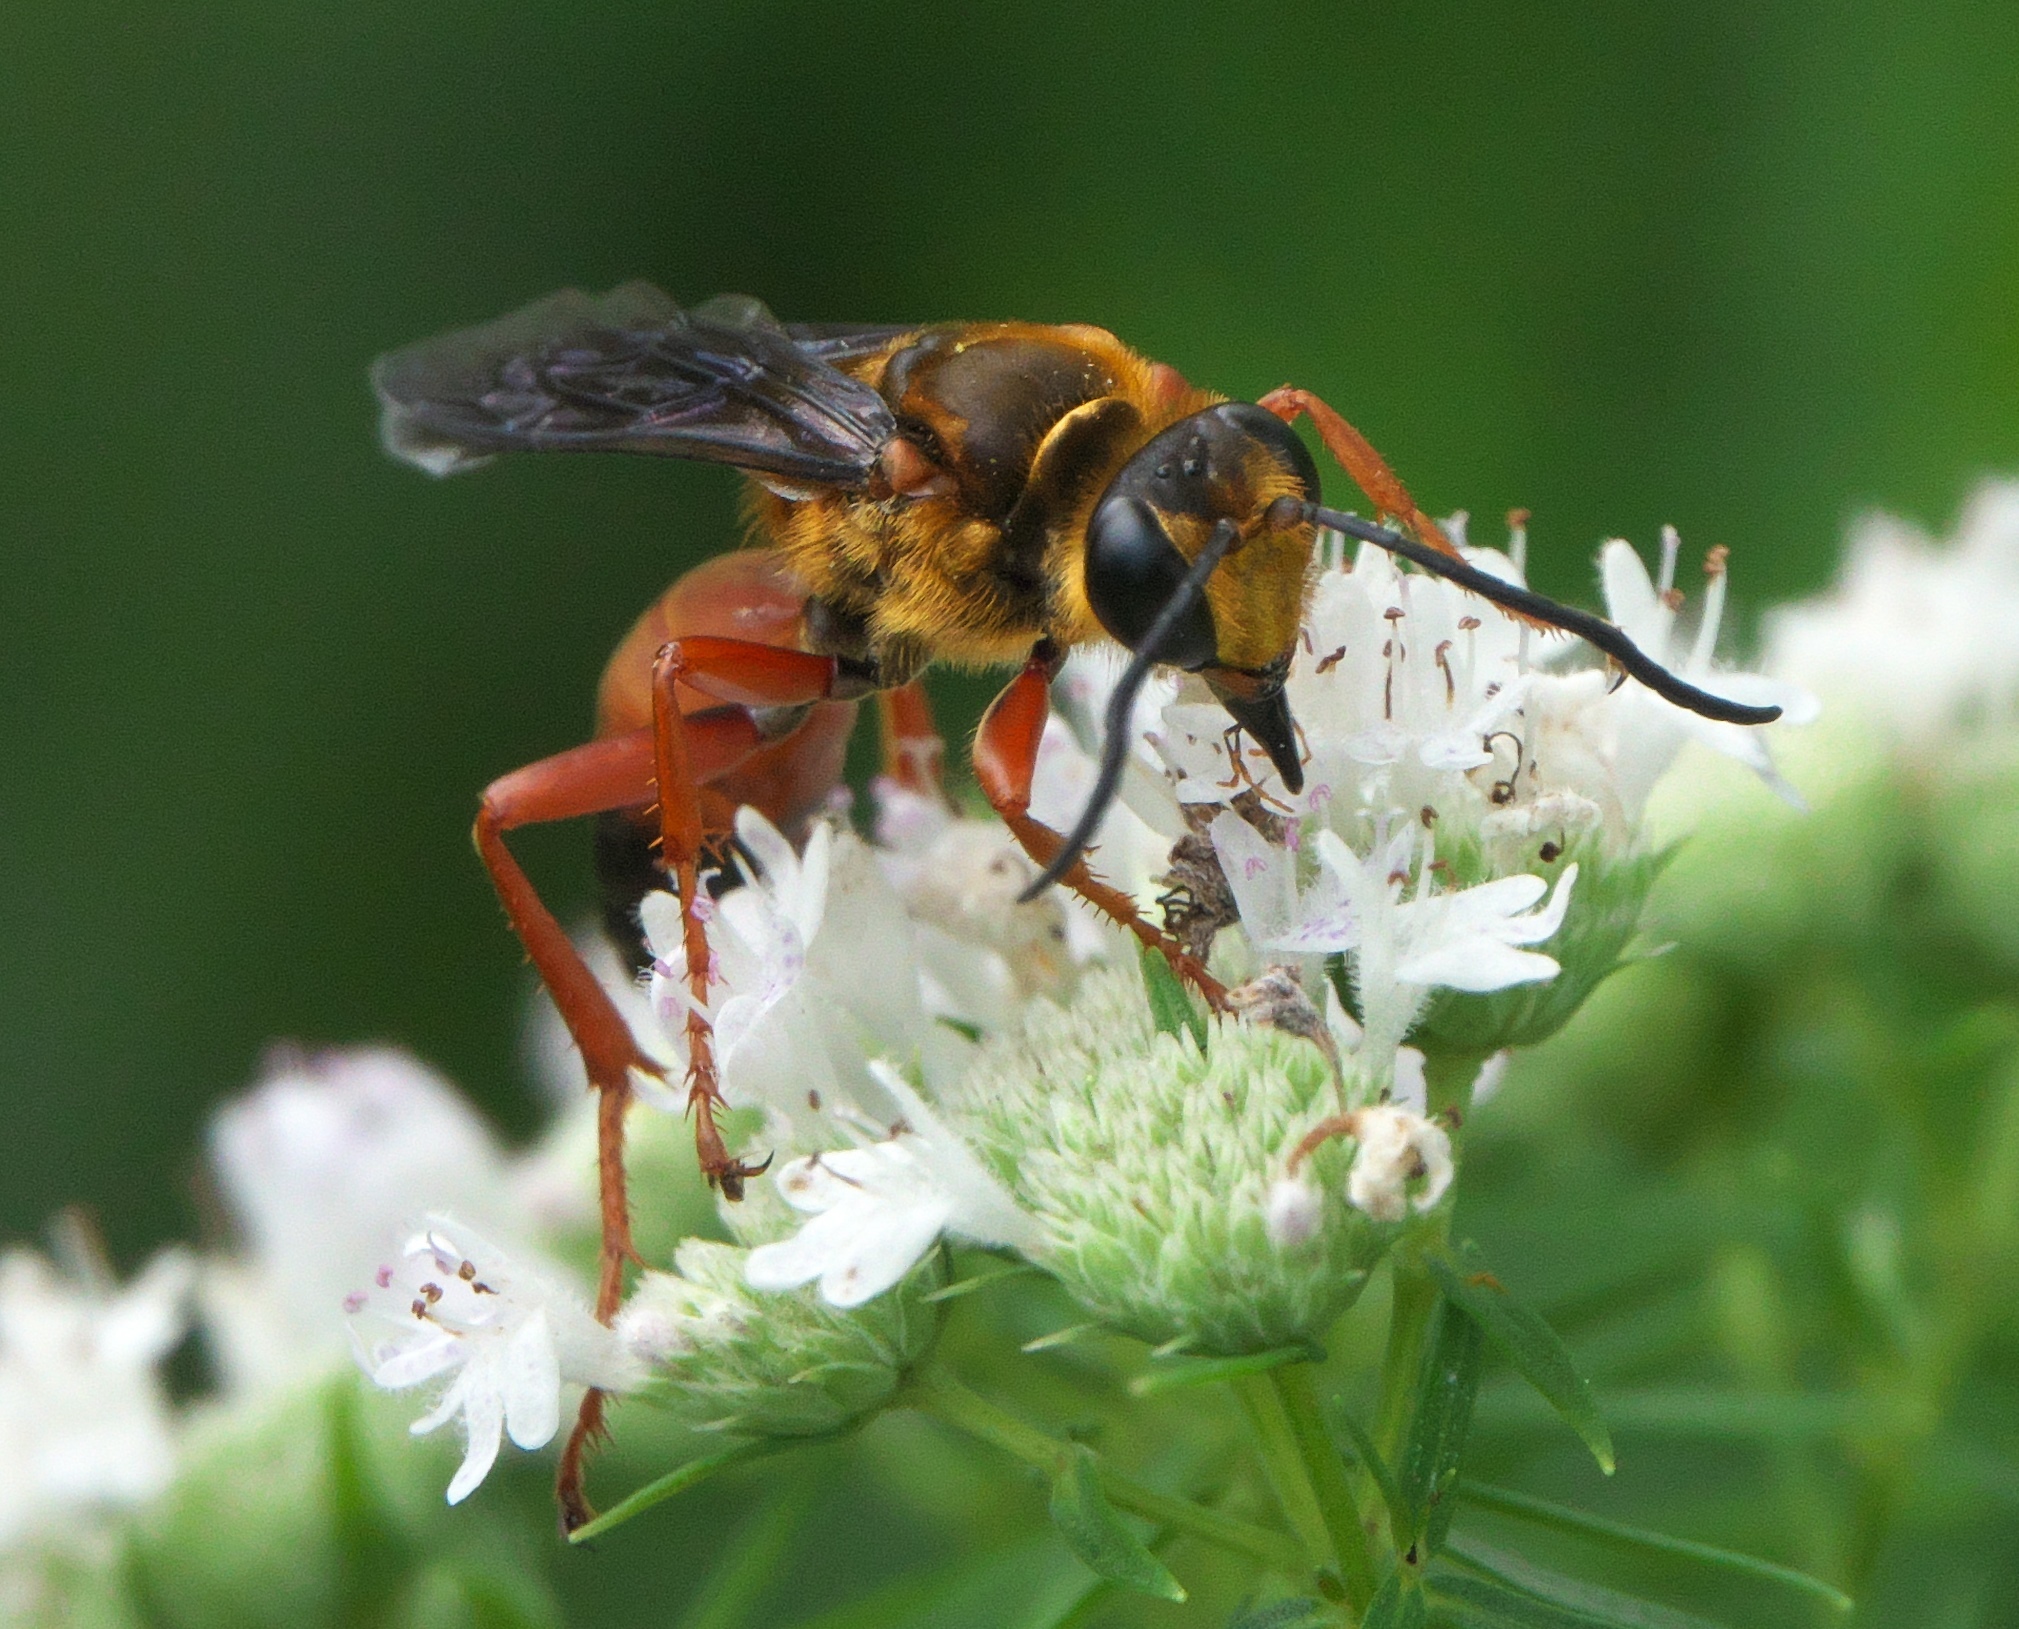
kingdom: Animalia
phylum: Arthropoda
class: Insecta
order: Hymenoptera
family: Sphecidae
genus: Sphex
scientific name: Sphex ichneumoneus
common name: Great golden digger wasp
